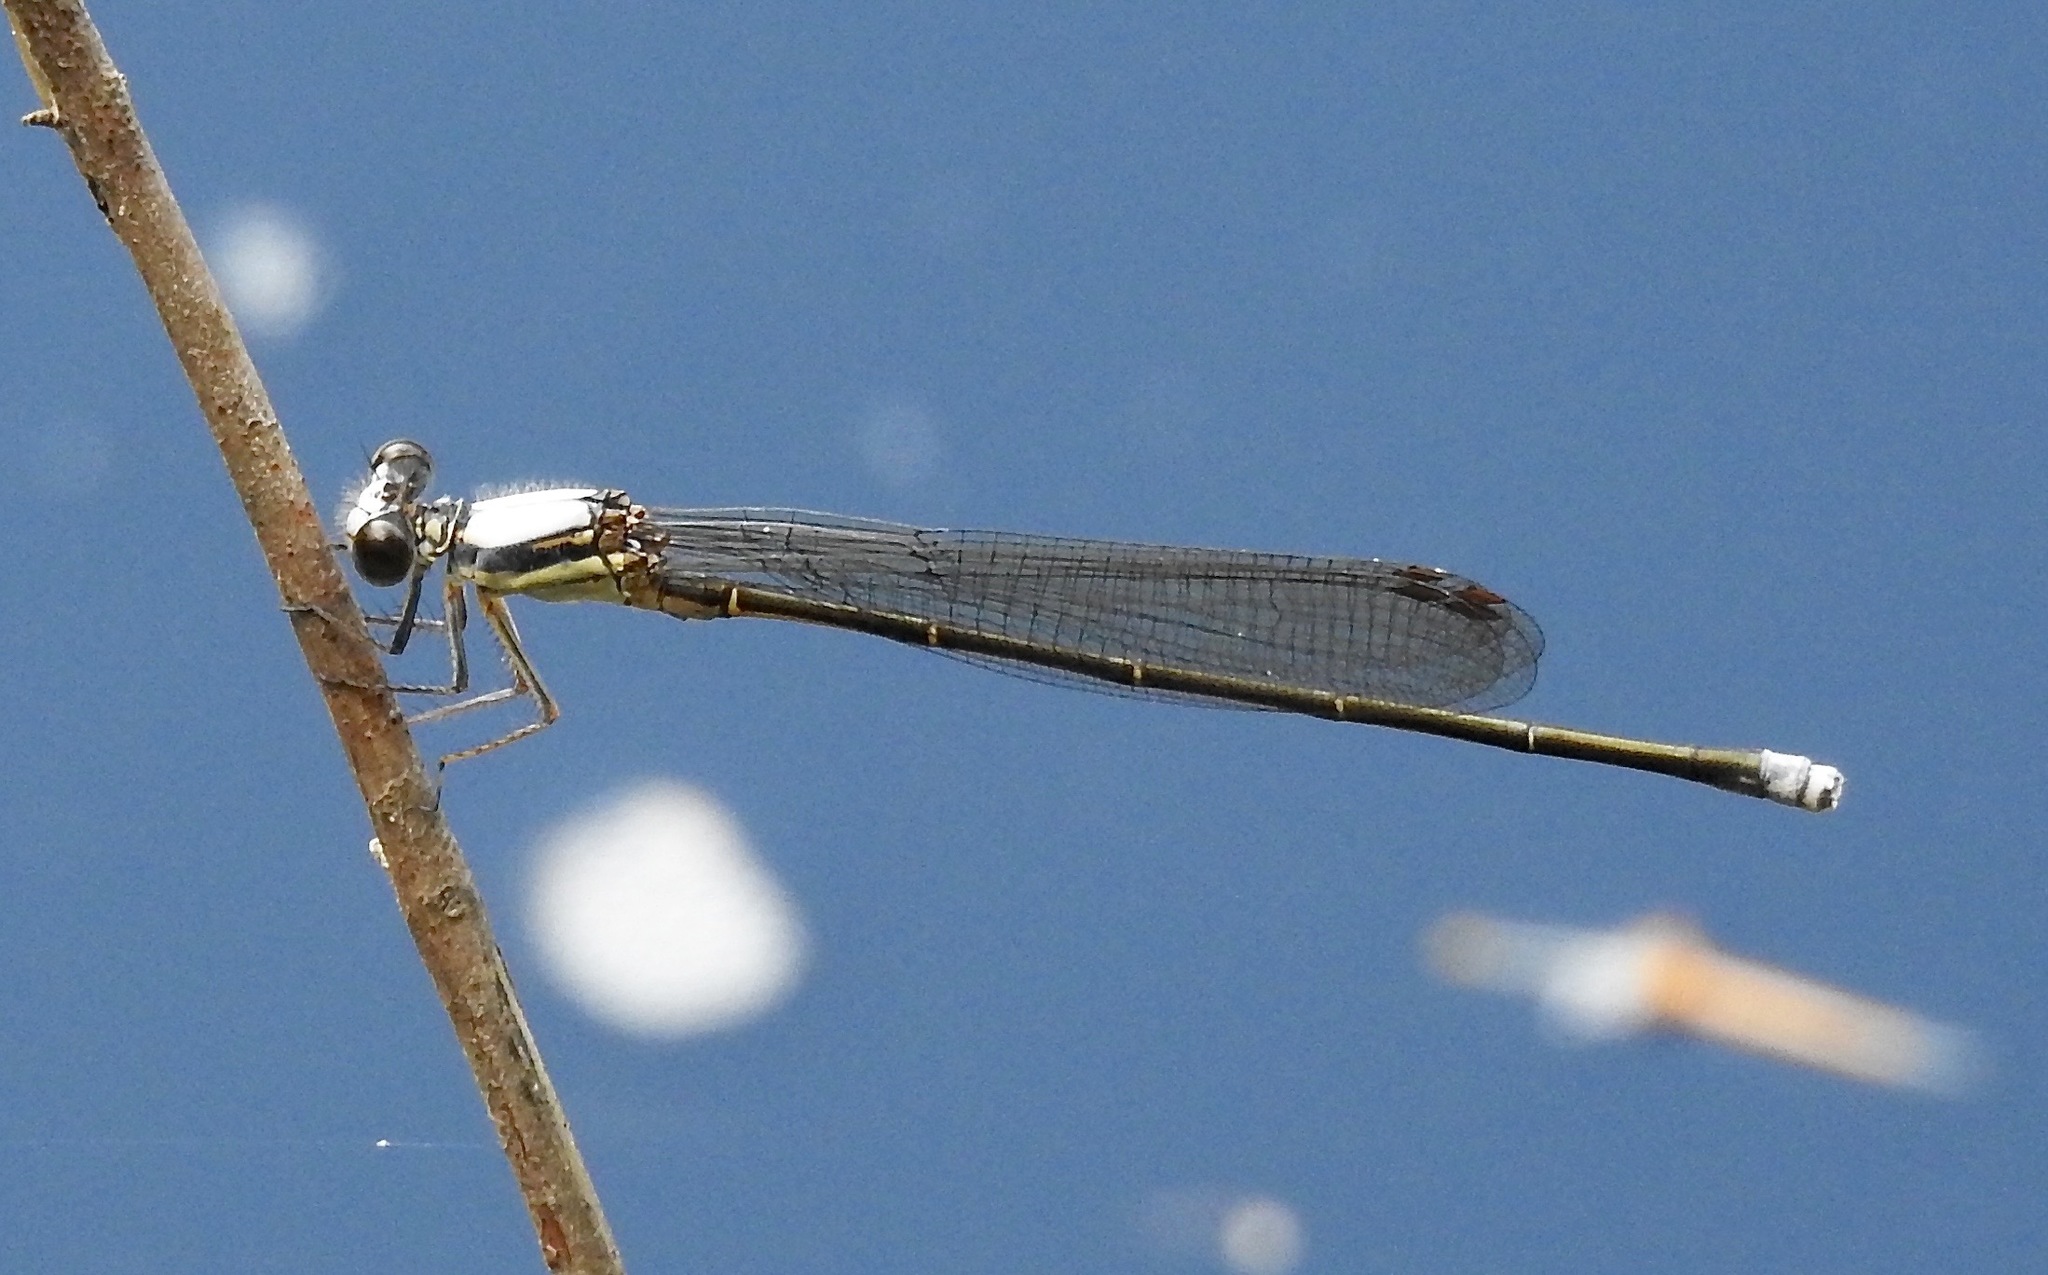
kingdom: Animalia
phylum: Arthropoda
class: Insecta
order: Odonata
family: Coenagrionidae
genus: Argia
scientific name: Argia moesta
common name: Powdered dancer
